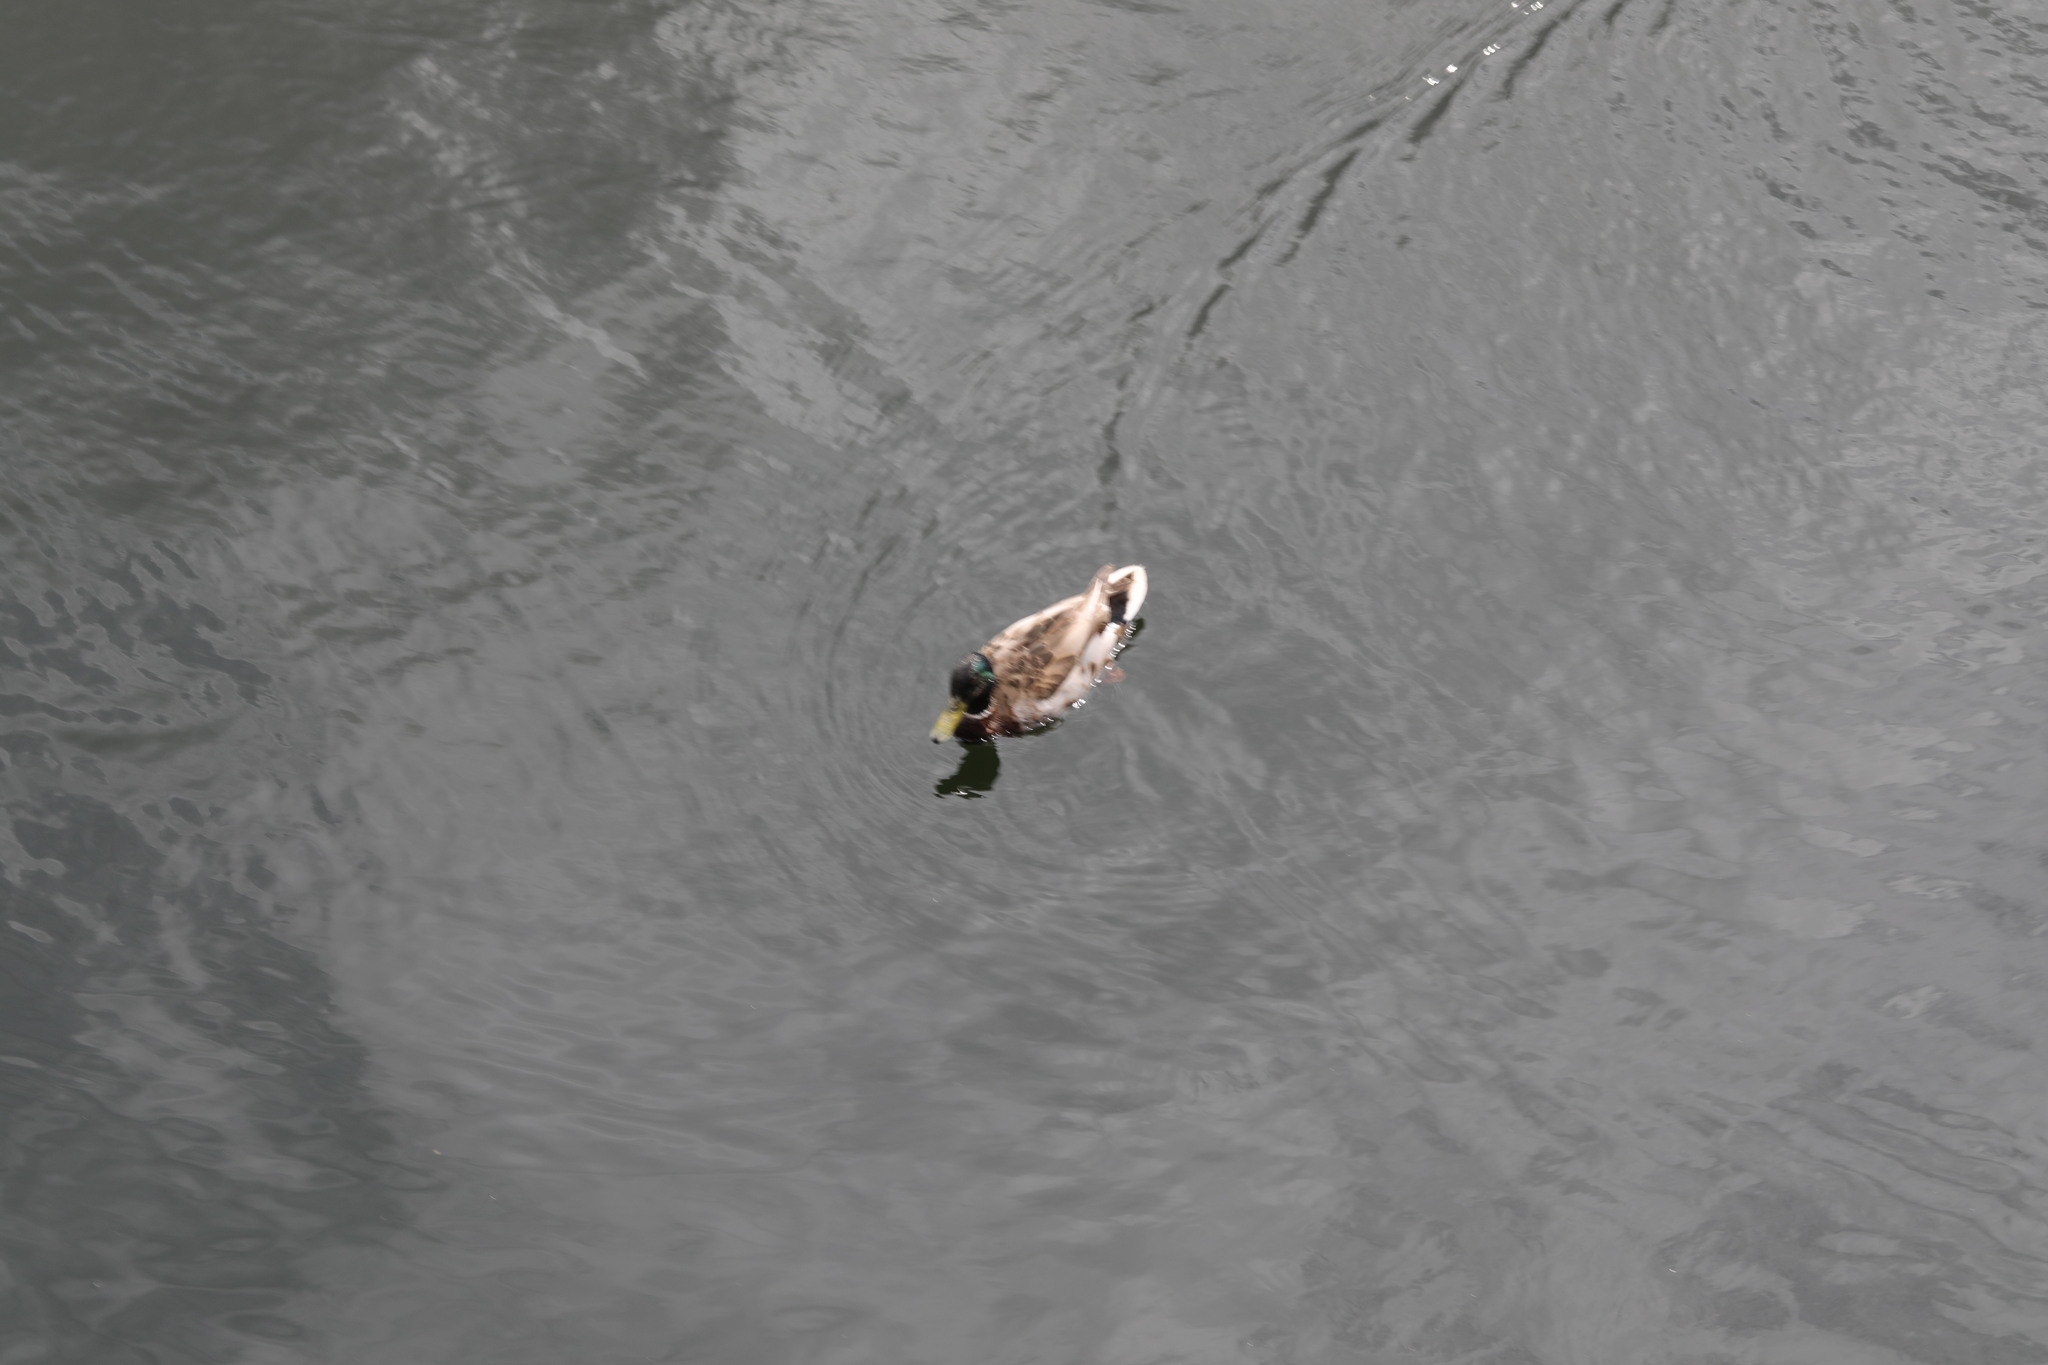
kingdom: Animalia
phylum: Chordata
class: Aves
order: Anseriformes
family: Anatidae
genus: Anas
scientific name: Anas platyrhynchos
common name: Mallard
